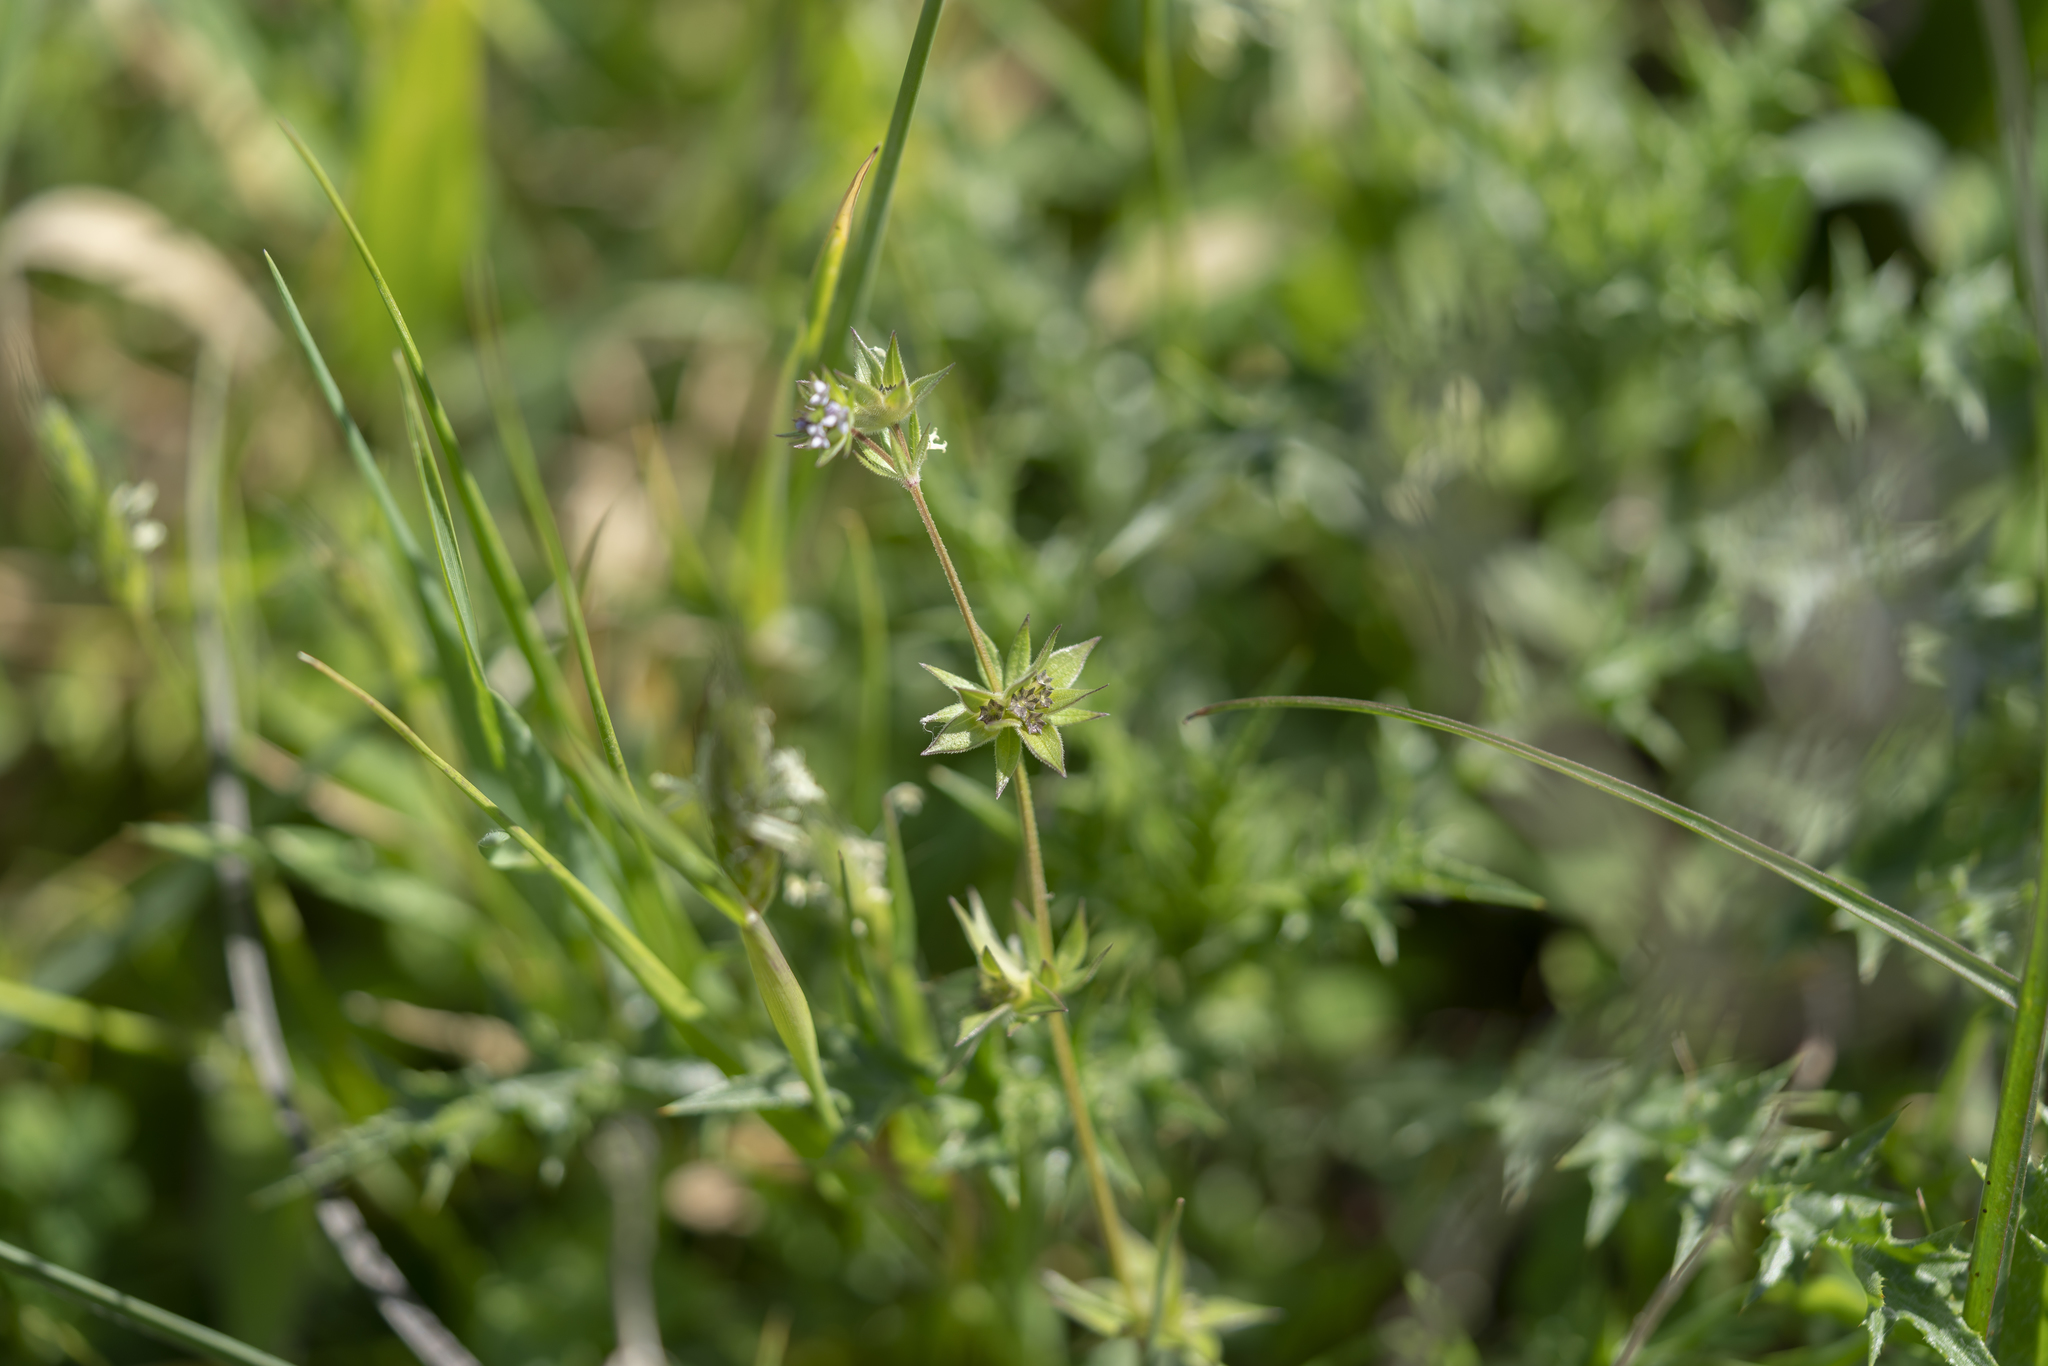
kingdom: Plantae
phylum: Tracheophyta
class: Magnoliopsida
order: Gentianales
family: Rubiaceae
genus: Sherardia
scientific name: Sherardia arvensis
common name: Field madder
